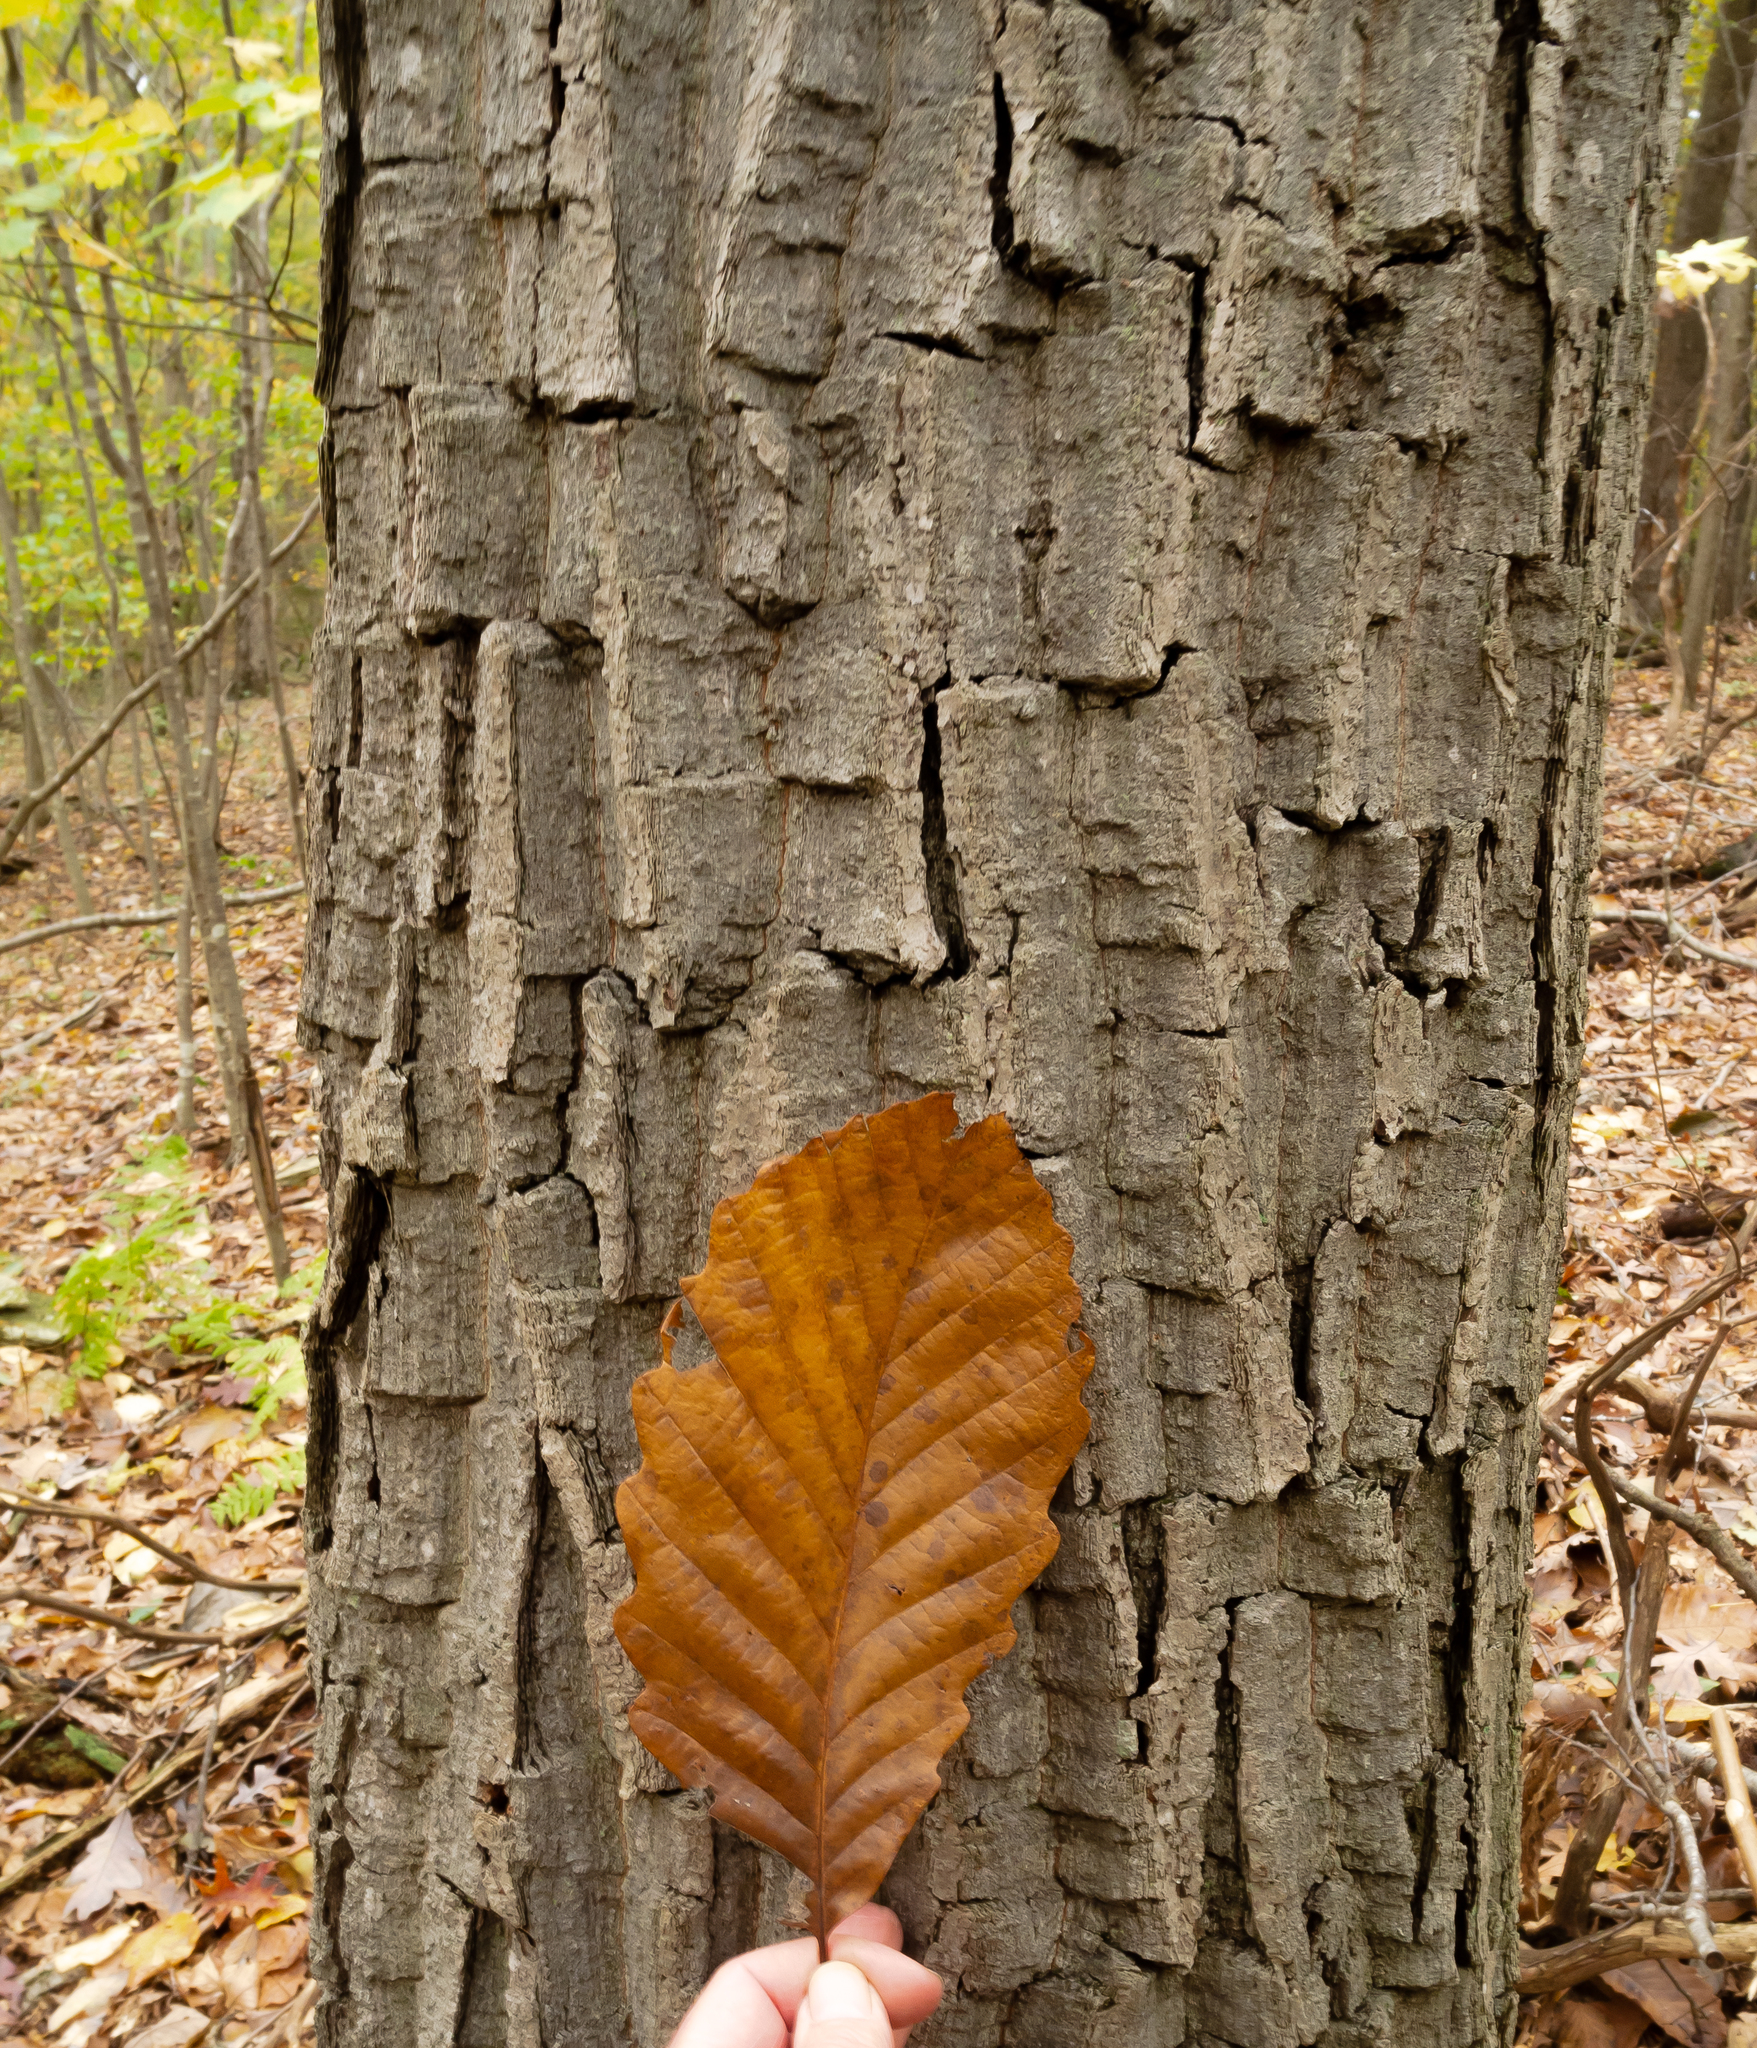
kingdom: Plantae
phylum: Tracheophyta
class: Magnoliopsida
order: Fagales
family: Fagaceae
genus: Quercus
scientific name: Quercus montana
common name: Chestnut oak
